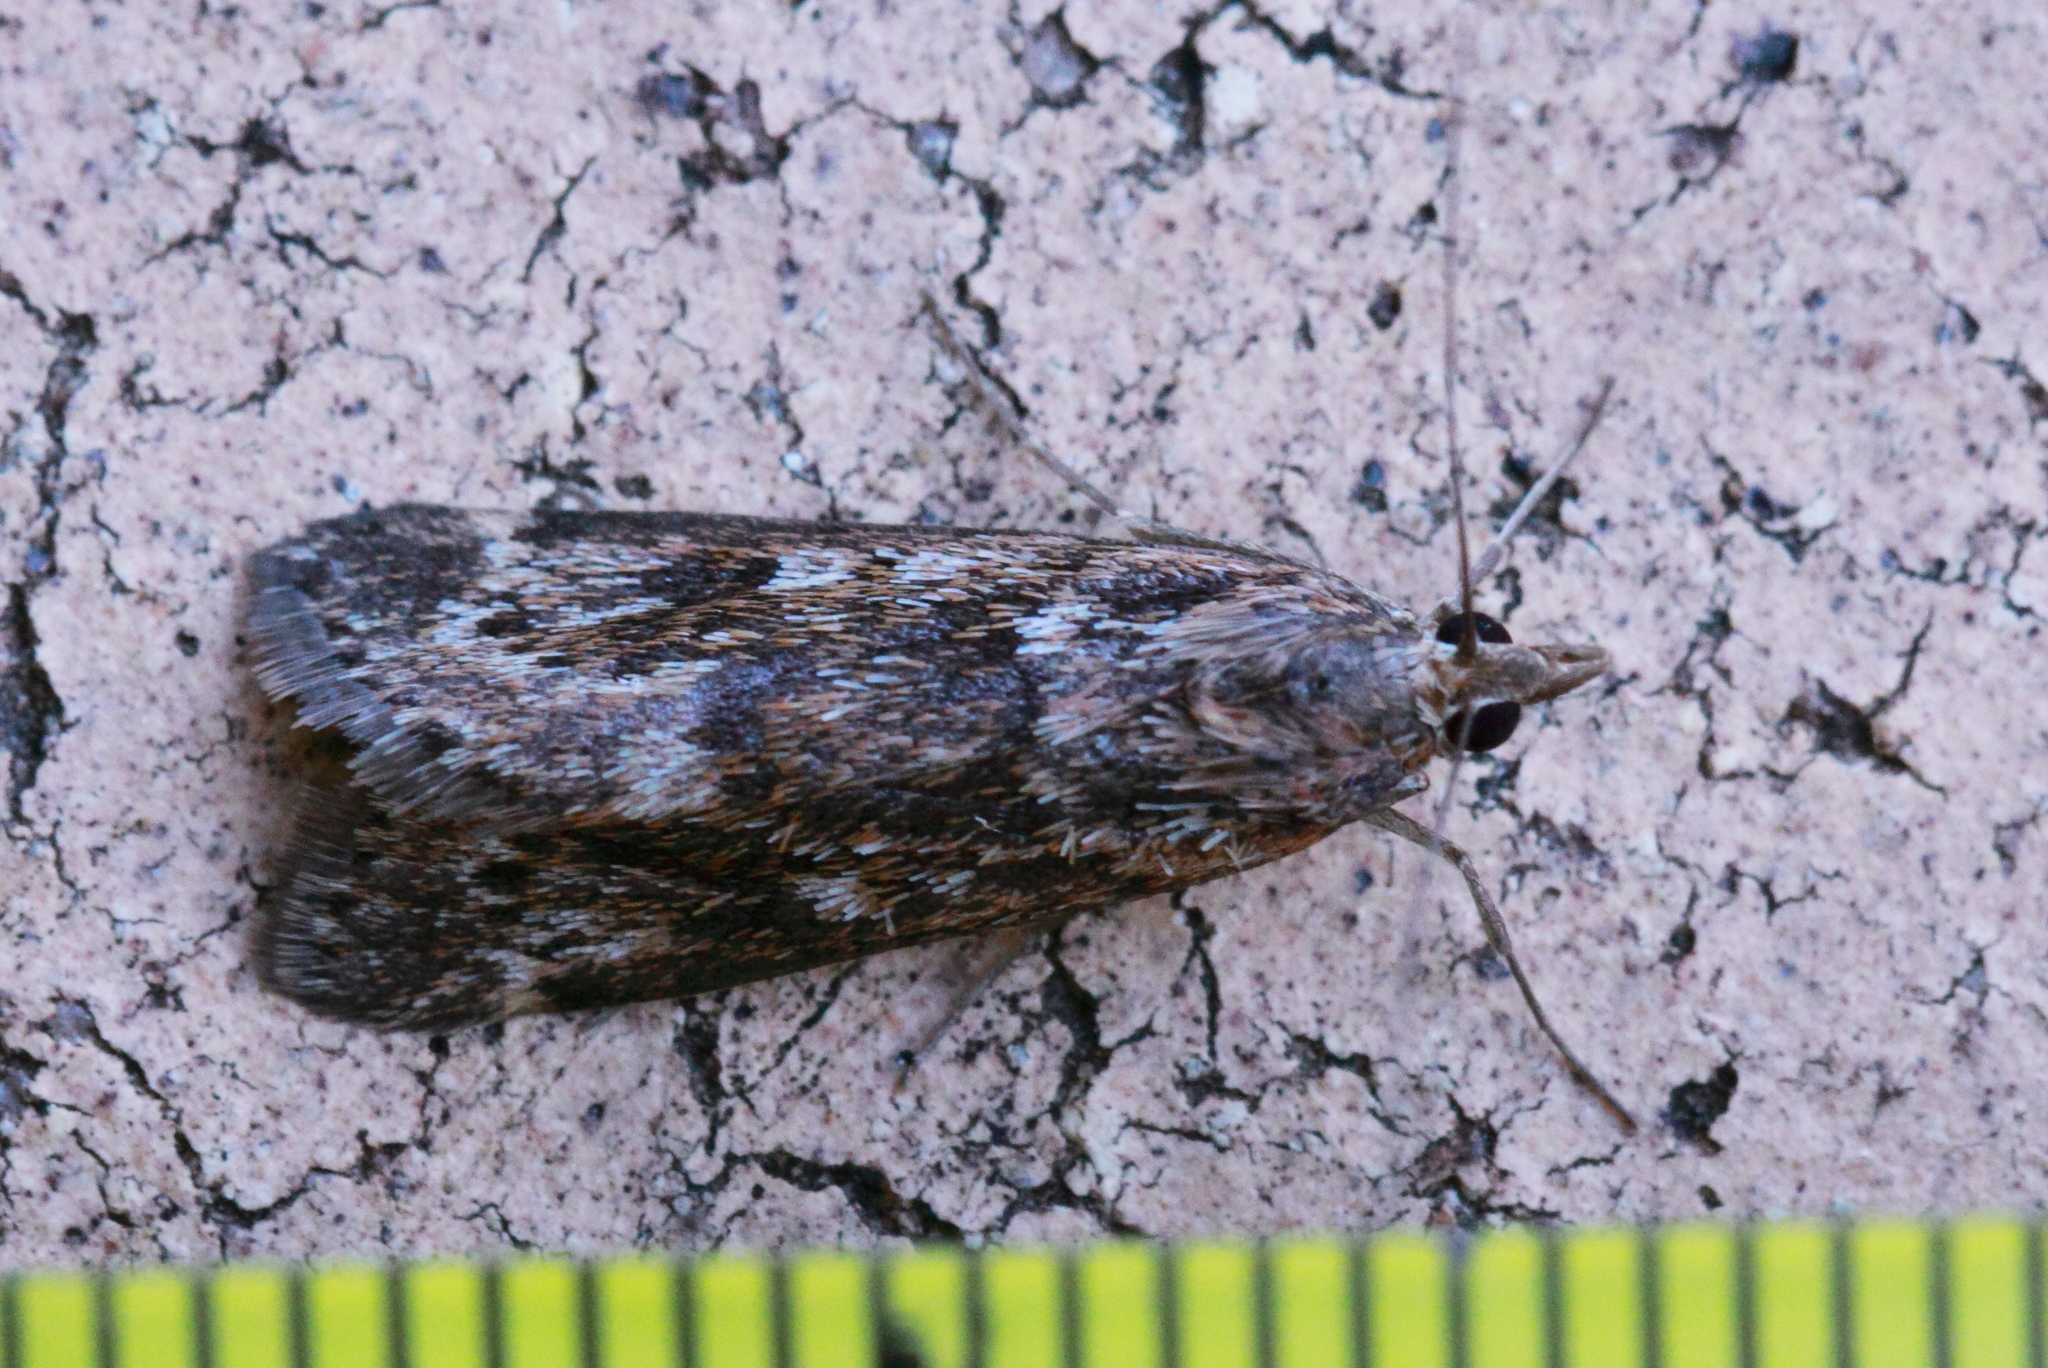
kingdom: Animalia
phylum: Arthropoda
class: Insecta
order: Lepidoptera
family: Crambidae
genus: Achyra
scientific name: Achyra affinitalis
